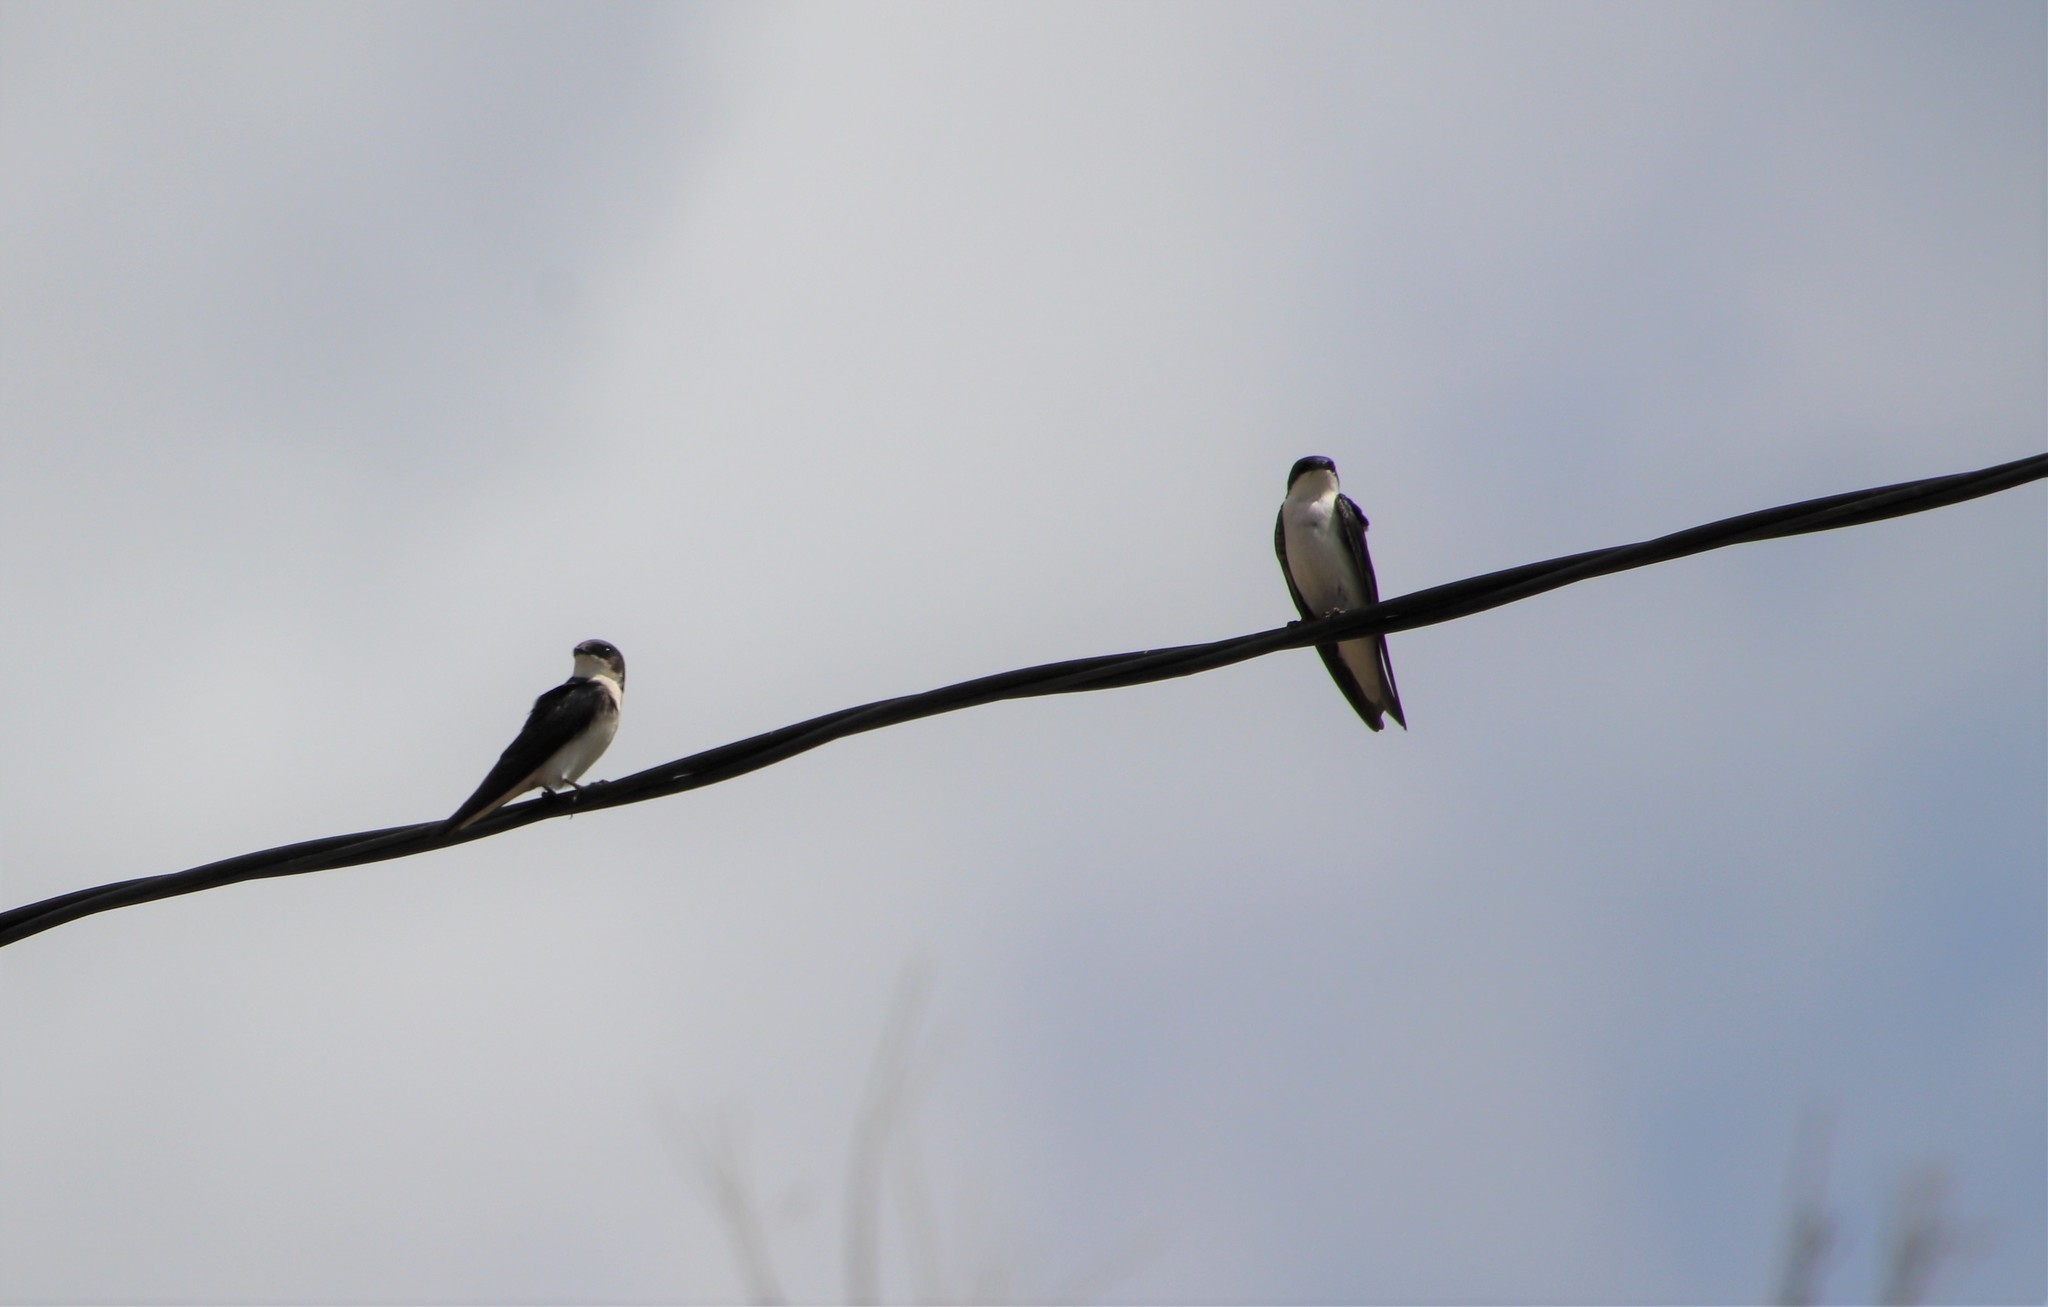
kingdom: Animalia
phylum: Chordata
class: Aves
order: Passeriformes
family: Hirundinidae
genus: Tachycineta
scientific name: Tachycineta bicolor
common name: Tree swallow
